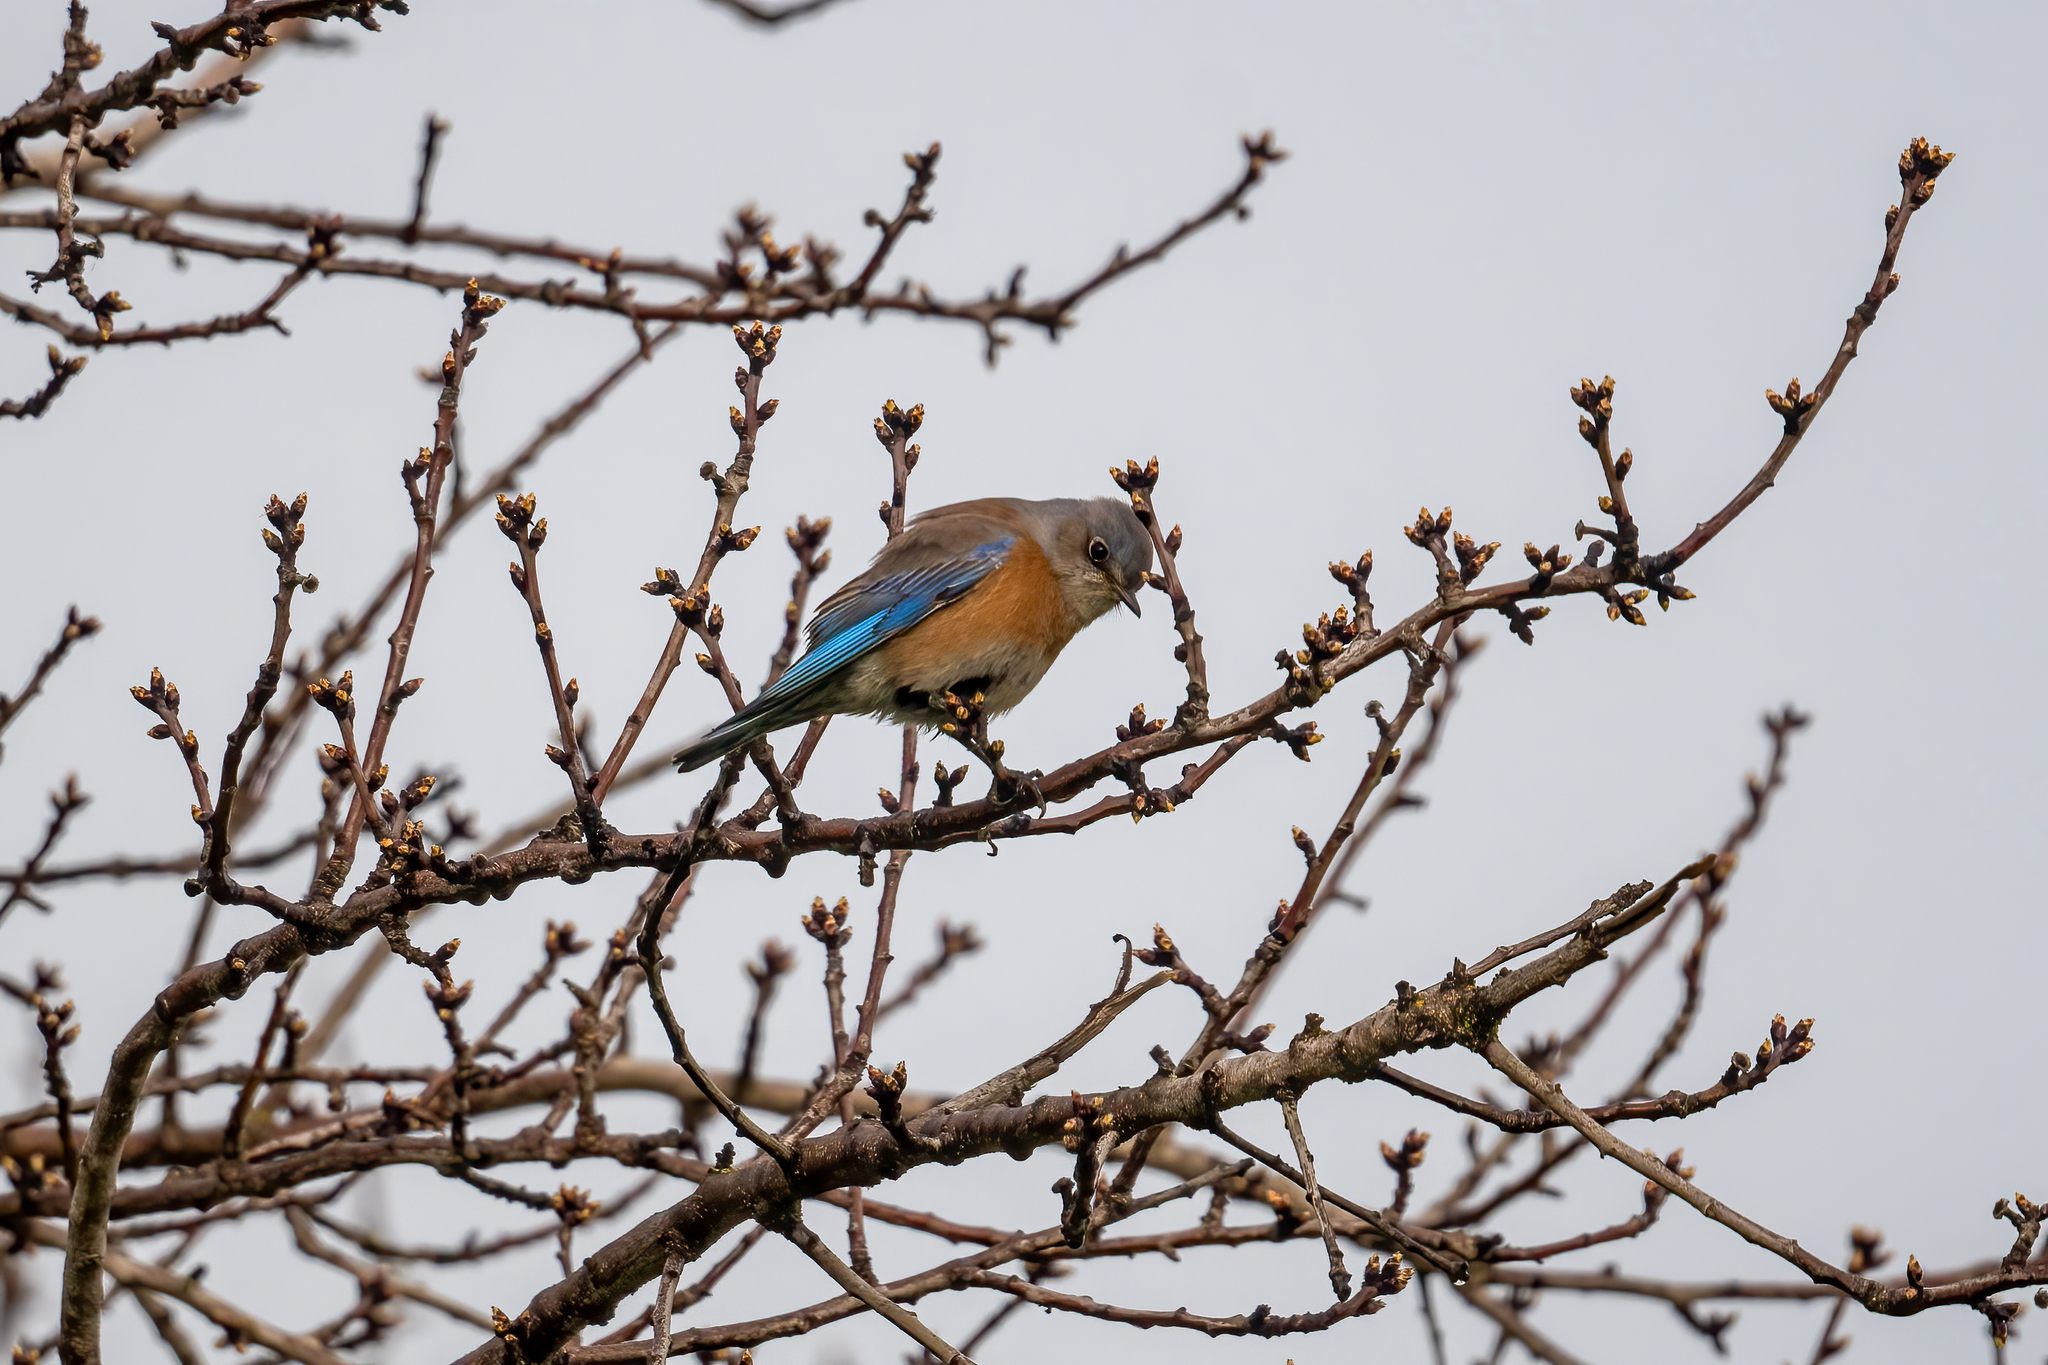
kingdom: Animalia
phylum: Chordata
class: Aves
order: Passeriformes
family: Turdidae
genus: Sialia
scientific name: Sialia mexicana
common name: Western bluebird
